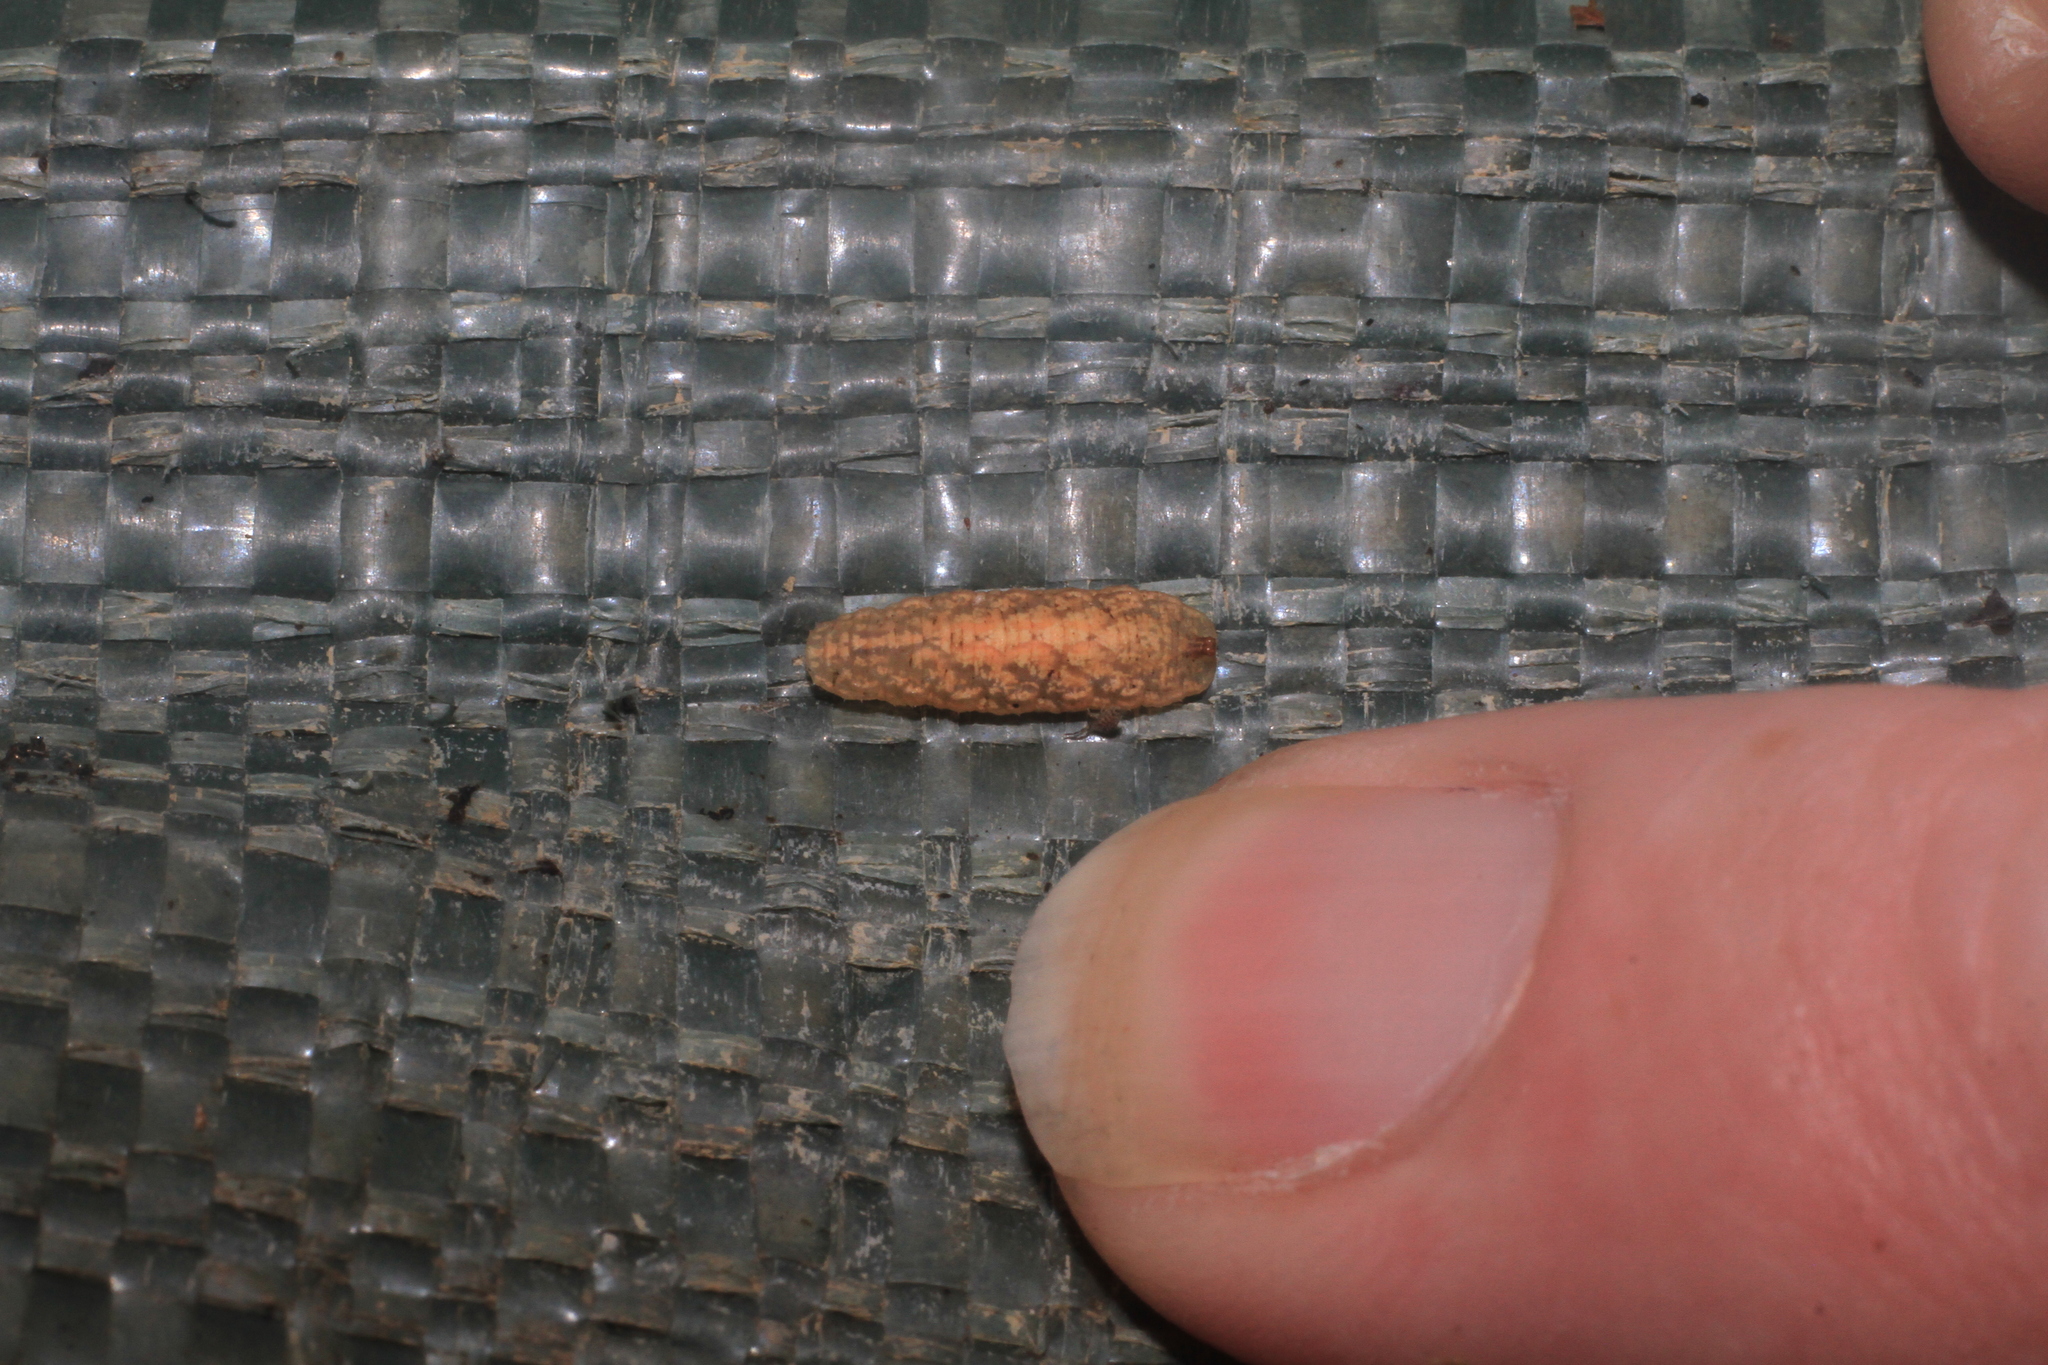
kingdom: Animalia
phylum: Arthropoda
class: Insecta
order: Diptera
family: Syrphidae
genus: Leucozona
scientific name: Leucozona
